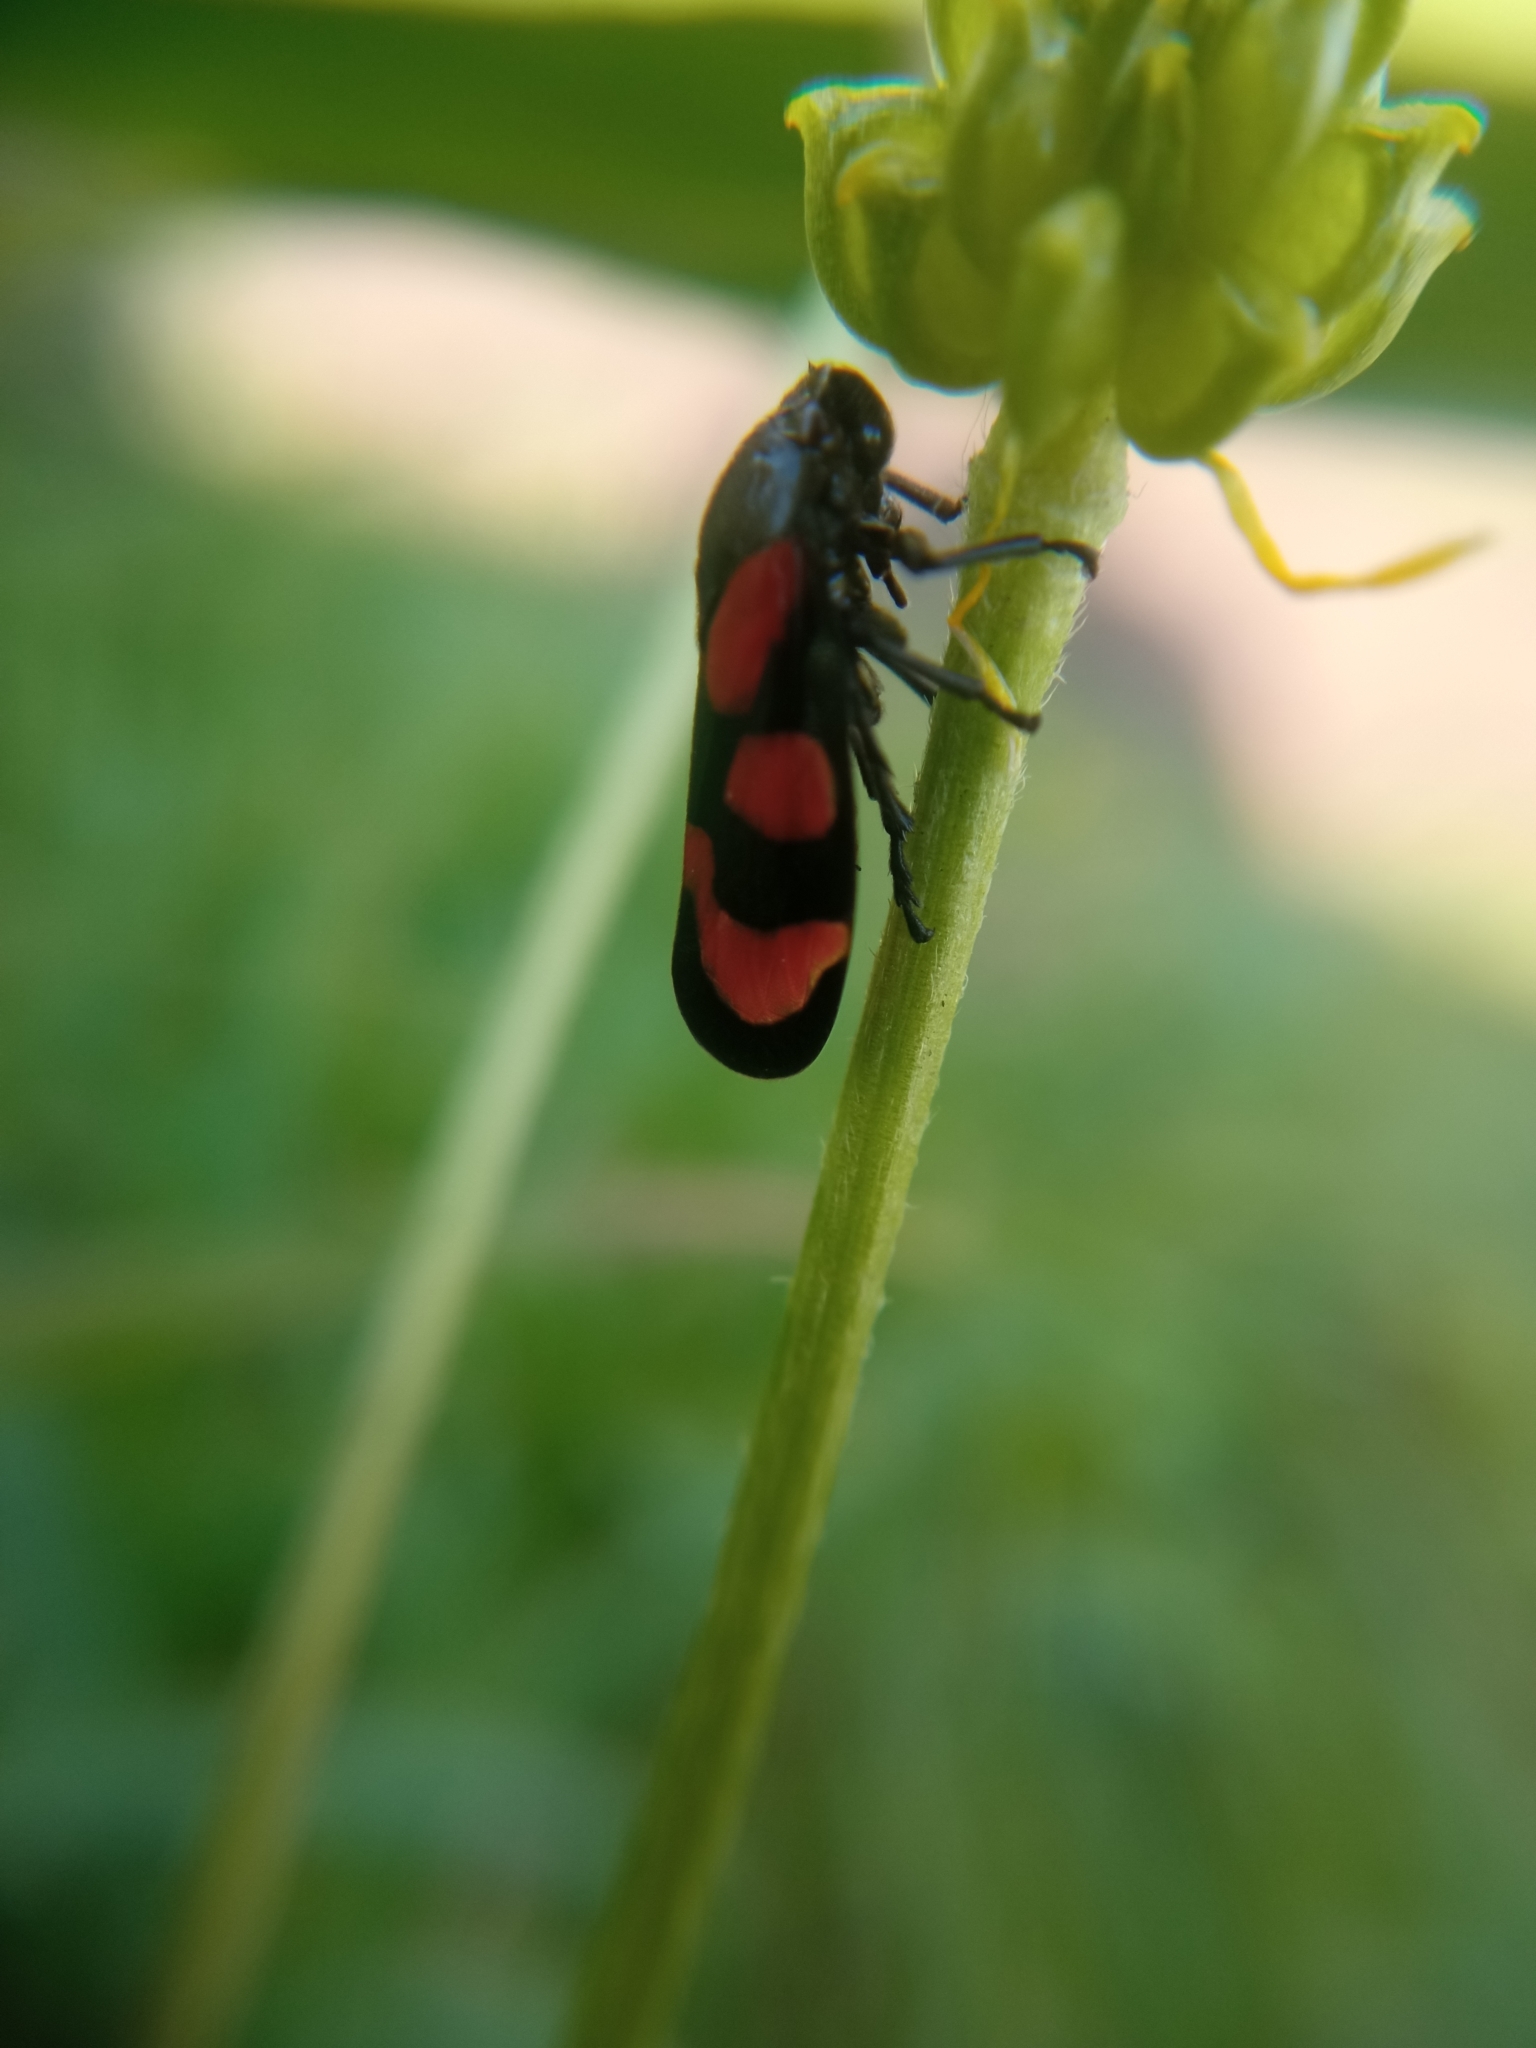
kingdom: Animalia
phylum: Arthropoda
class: Insecta
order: Hemiptera
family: Cercopidae
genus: Cercopis
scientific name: Cercopis vulnerata
